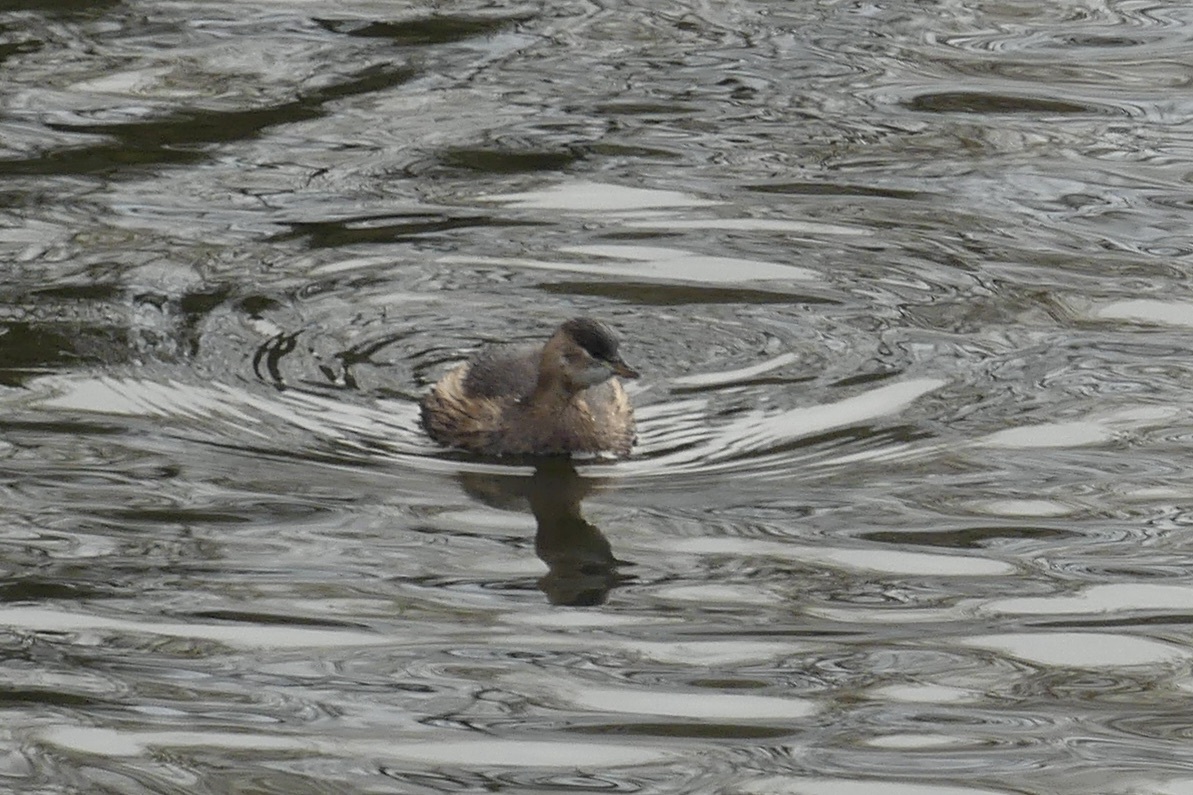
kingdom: Animalia
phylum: Chordata
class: Aves
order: Podicipediformes
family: Podicipedidae
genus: Tachybaptus
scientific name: Tachybaptus ruficollis
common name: Little grebe
